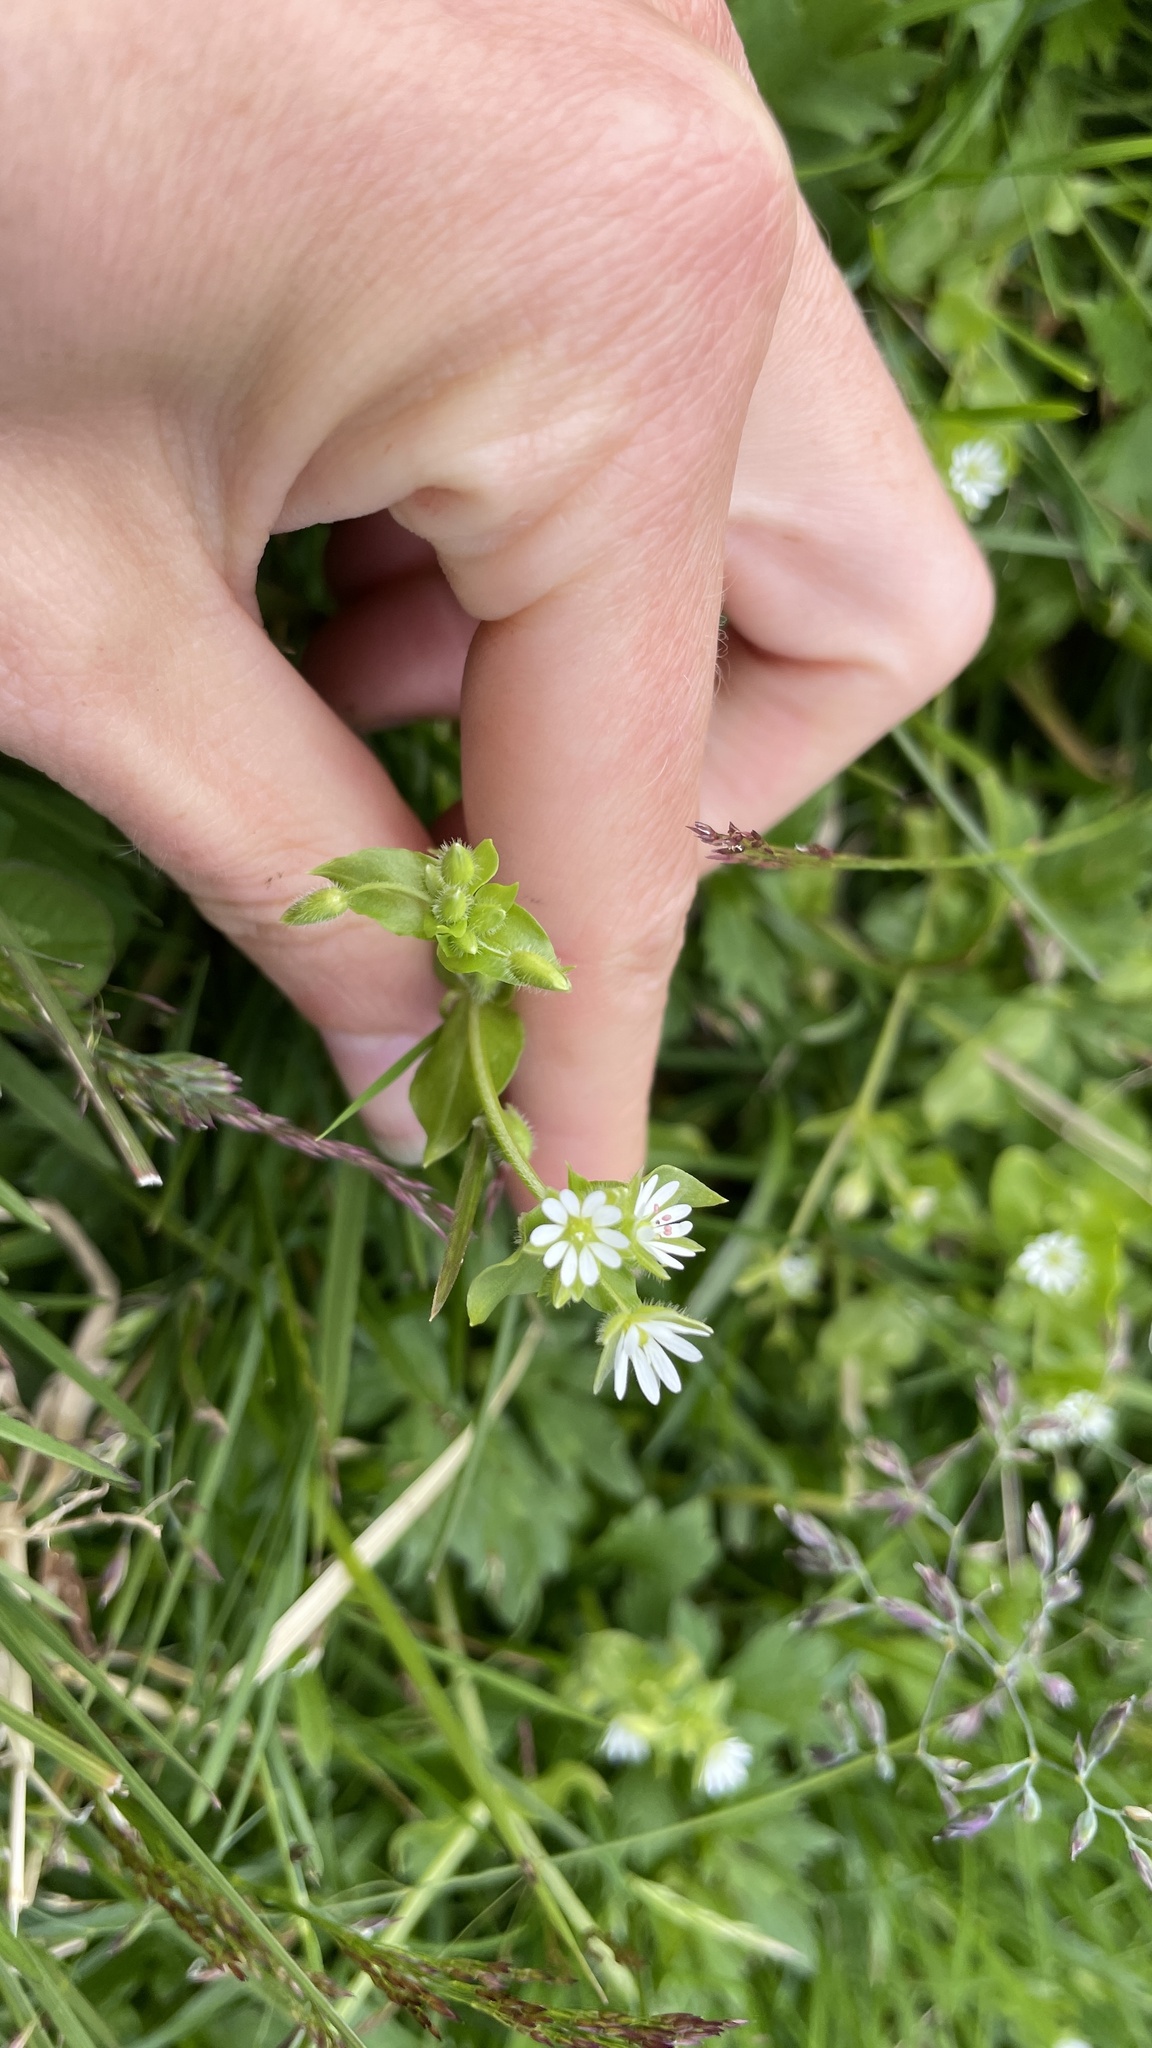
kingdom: Plantae
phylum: Tracheophyta
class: Magnoliopsida
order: Caryophyllales
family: Caryophyllaceae
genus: Stellaria
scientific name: Stellaria media
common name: Common chickweed
